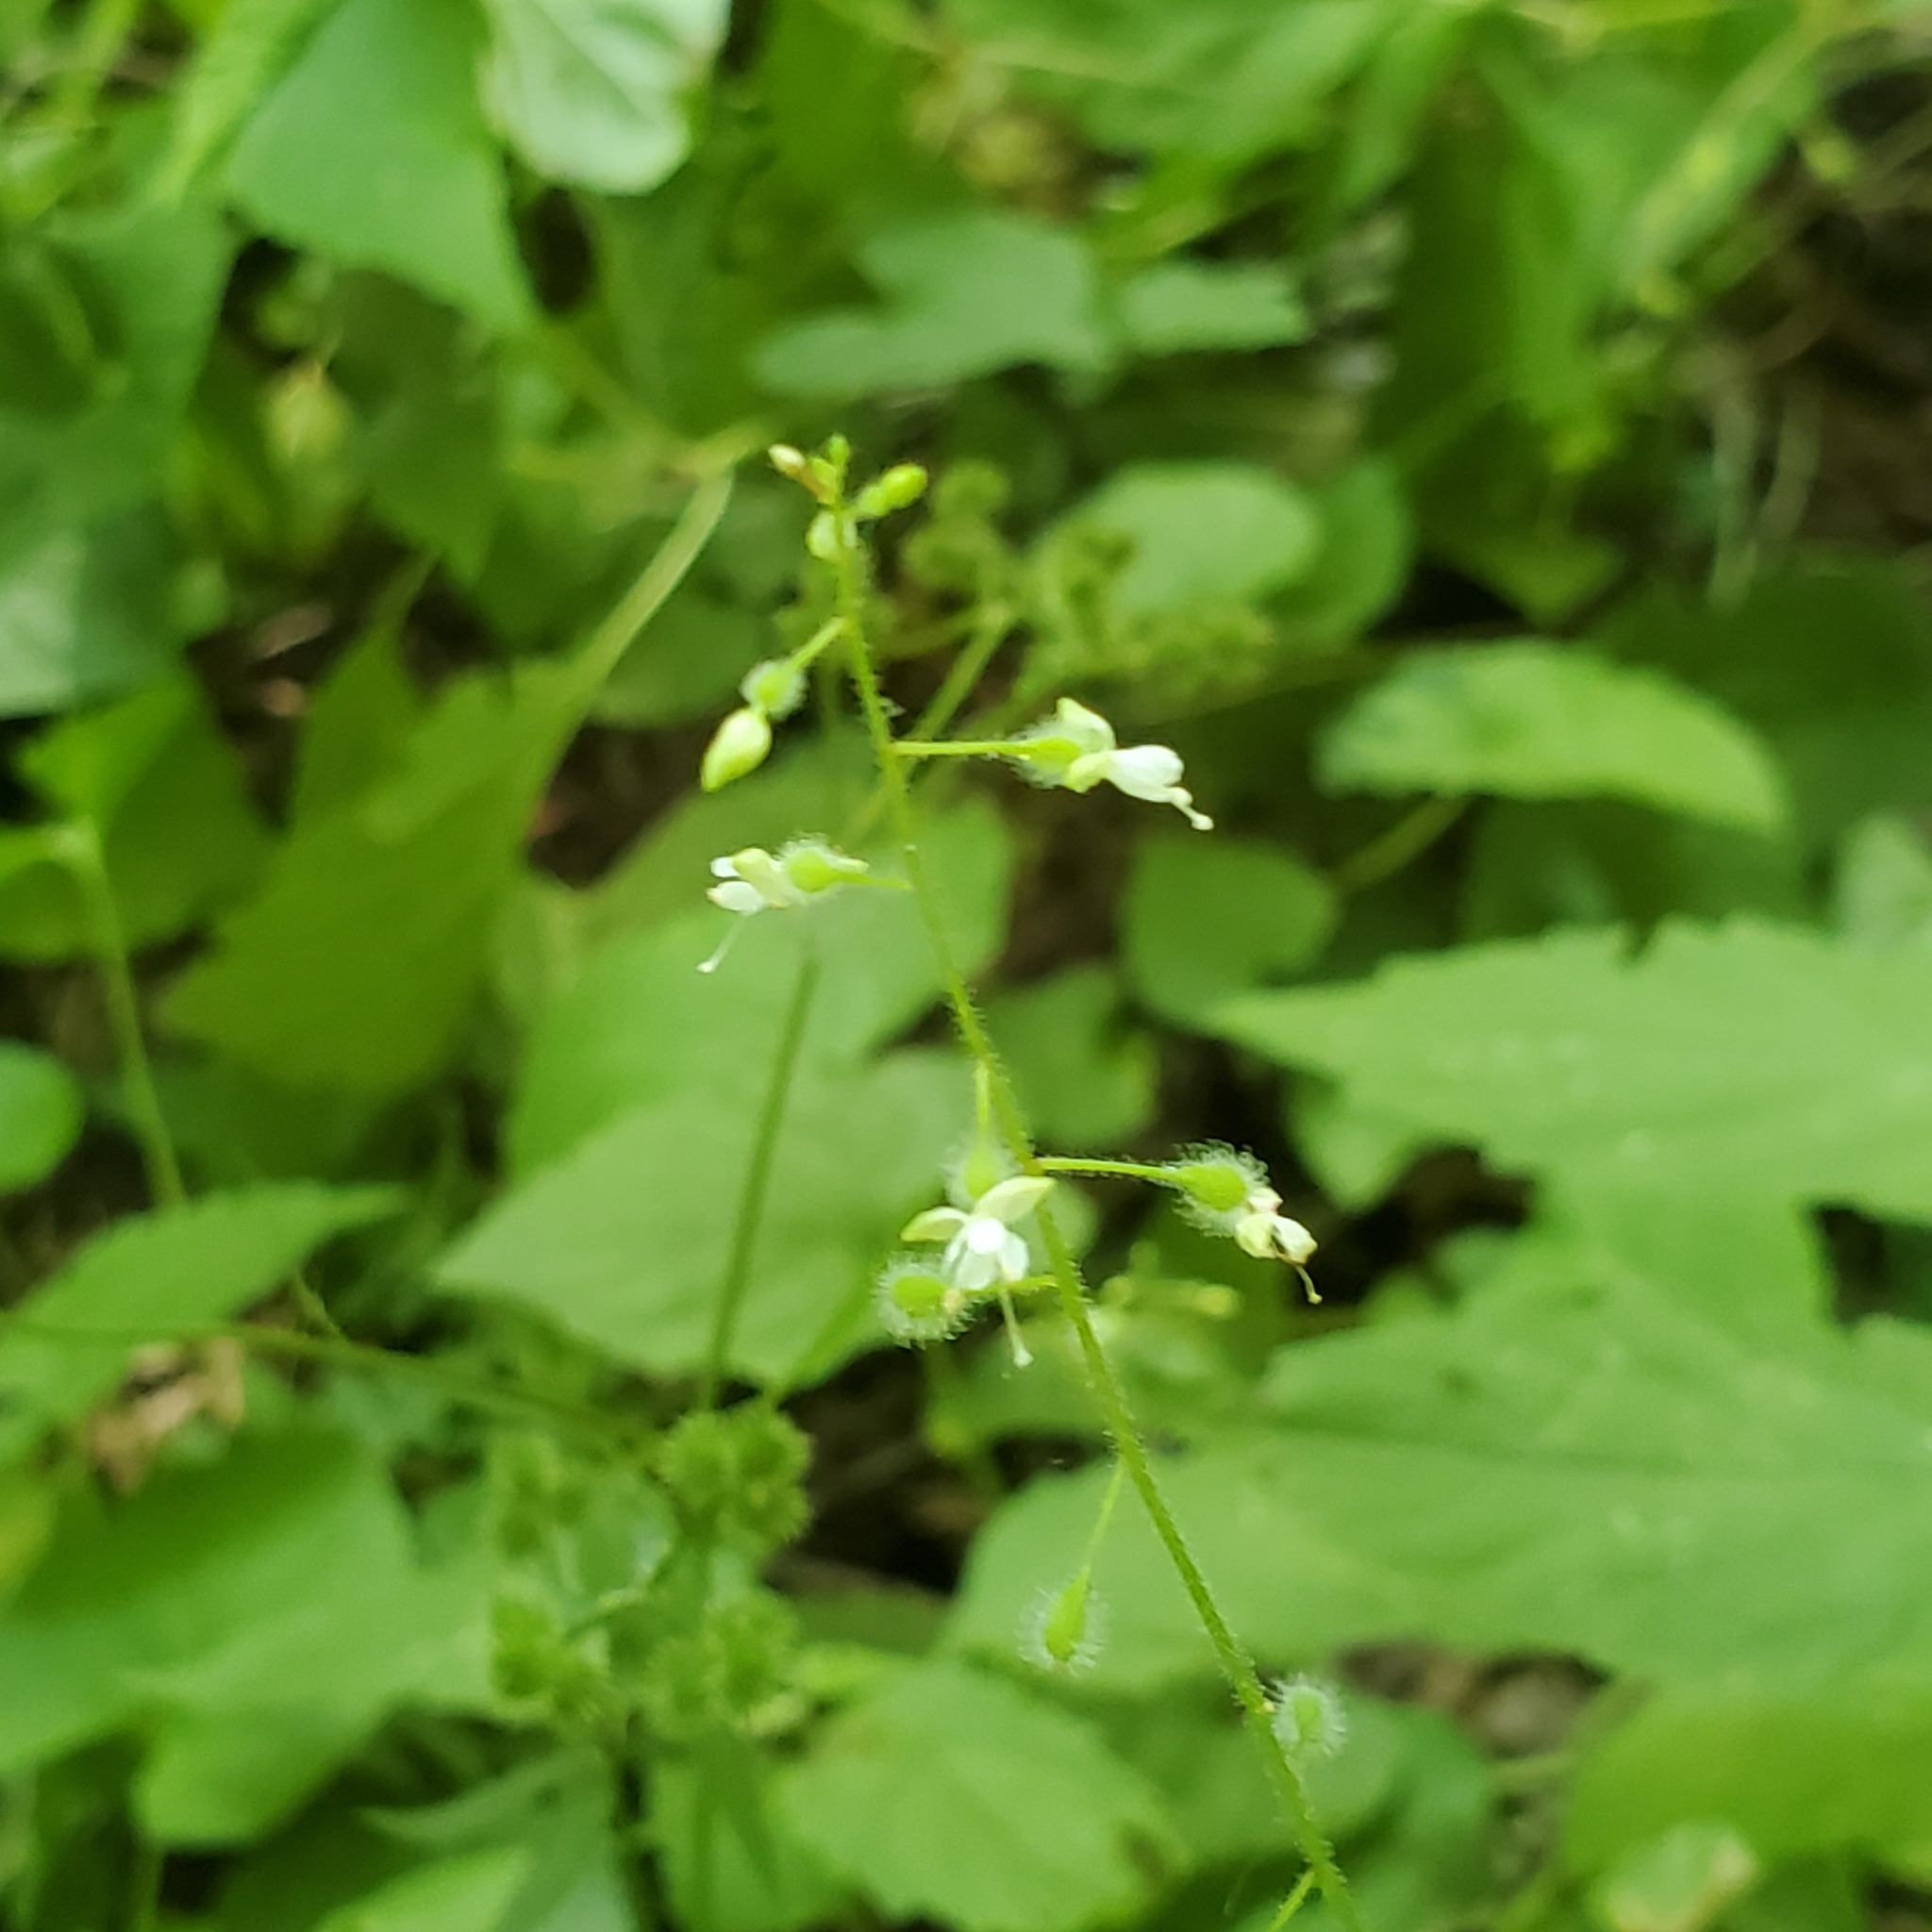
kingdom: Plantae
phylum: Tracheophyta
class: Magnoliopsida
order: Myrtales
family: Onagraceae
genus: Circaea
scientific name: Circaea canadensis
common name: Broad-leaved enchanter's nightshade
